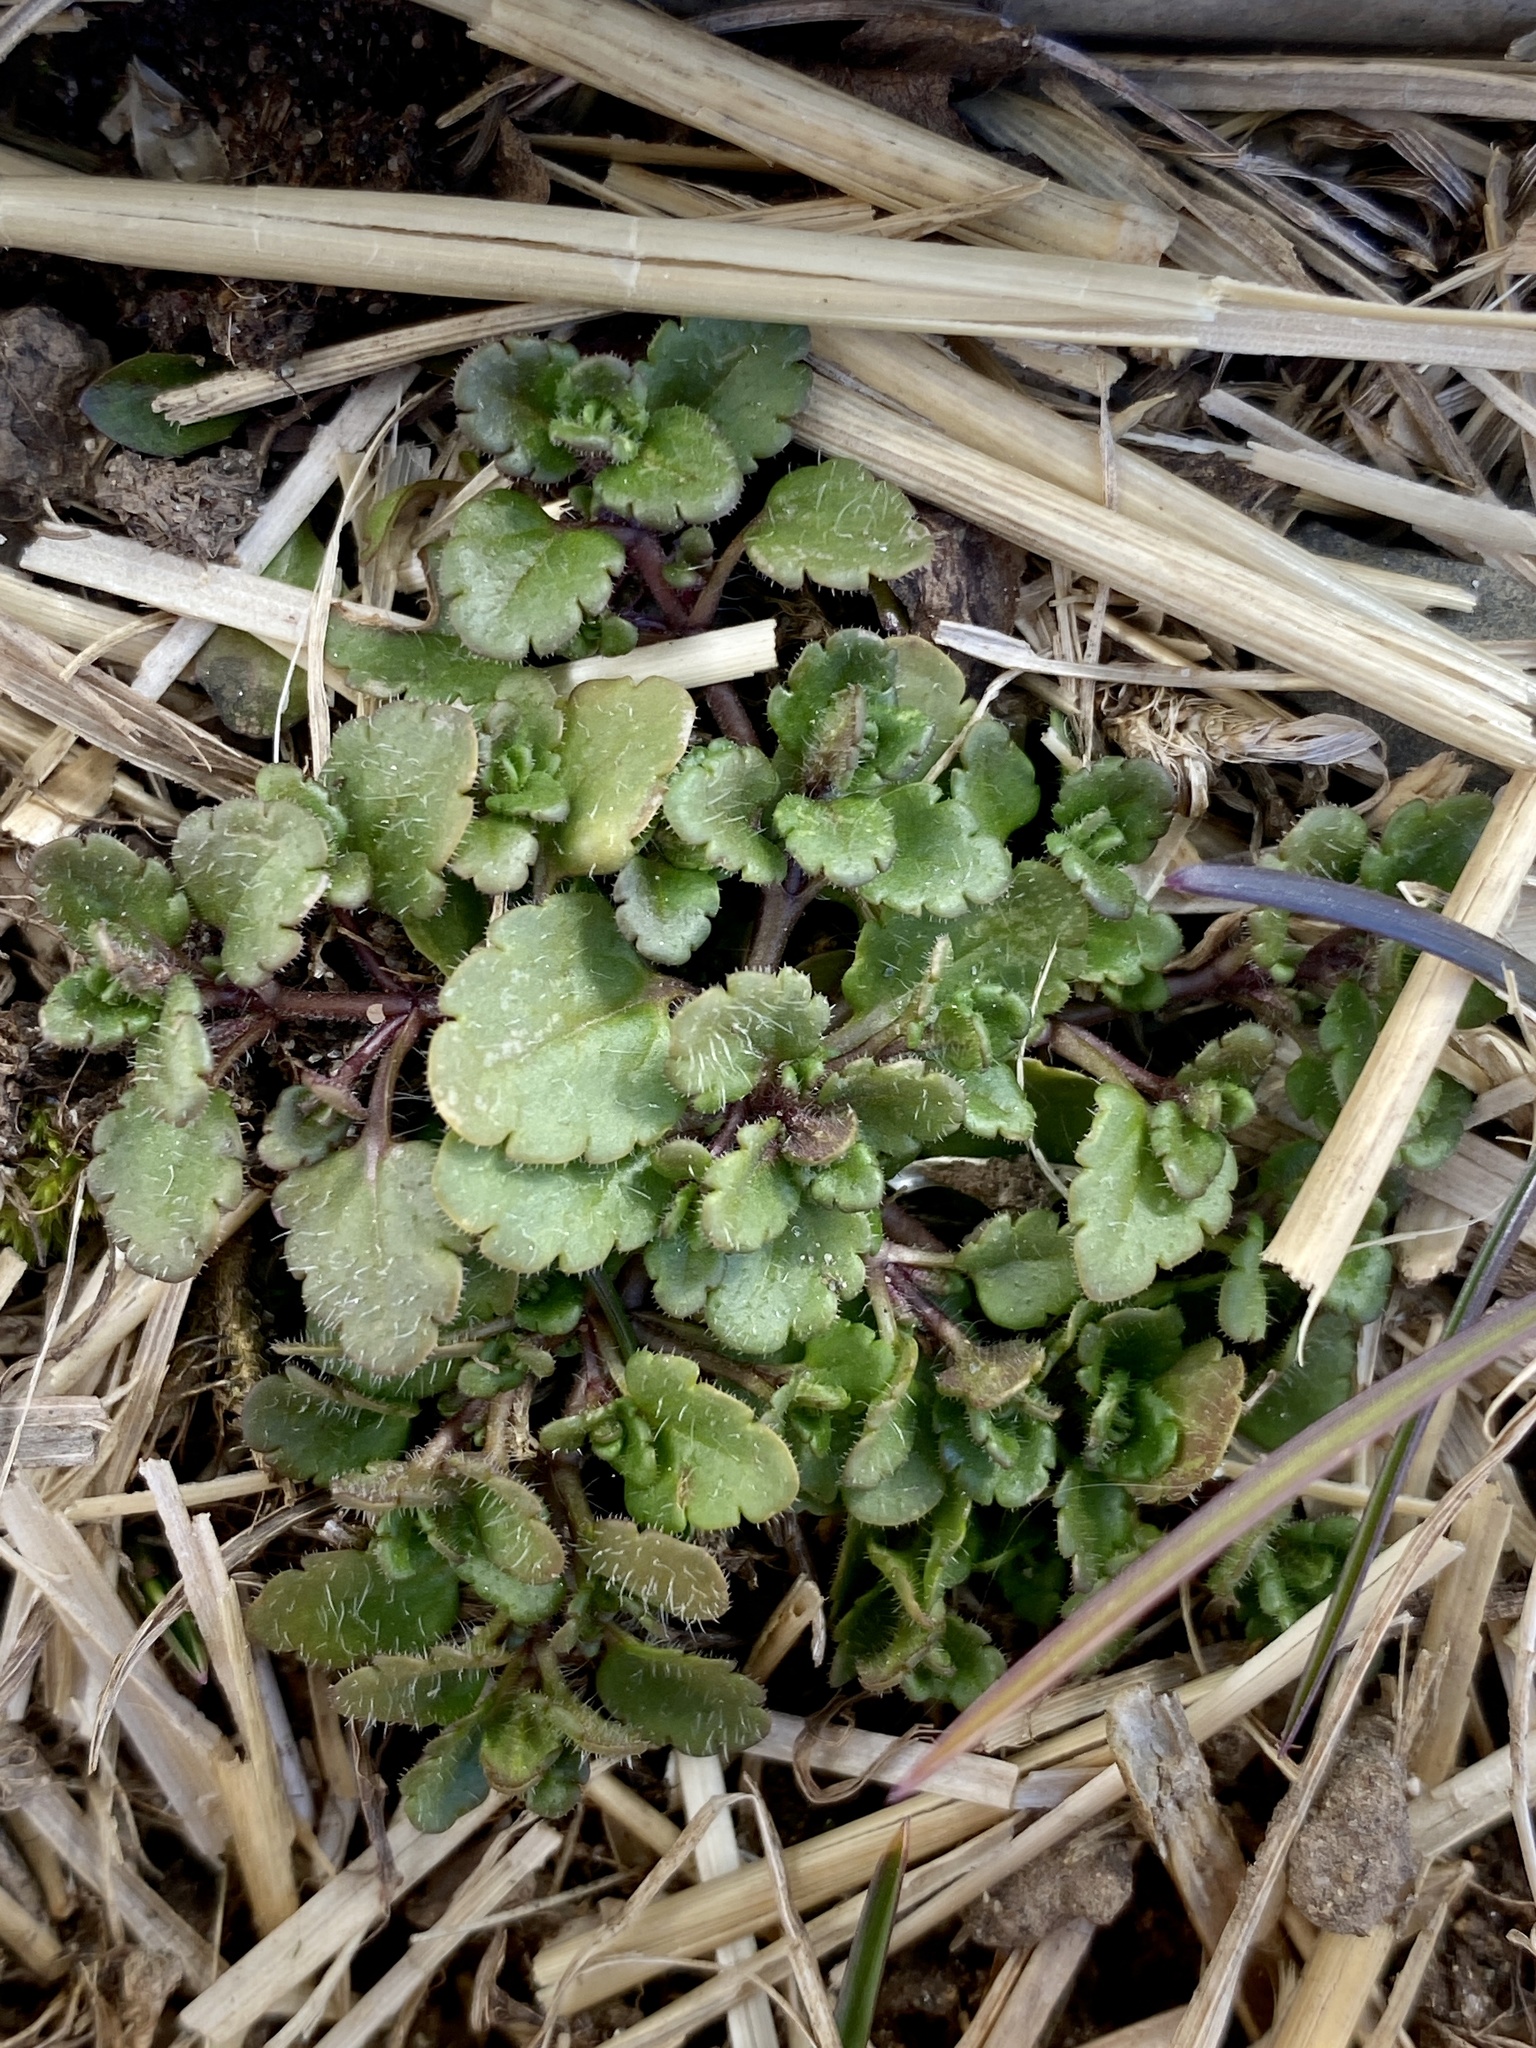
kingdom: Plantae
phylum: Tracheophyta
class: Magnoliopsida
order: Lamiales
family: Plantaginaceae
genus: Veronica
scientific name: Veronica arvensis
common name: Corn speedwell
